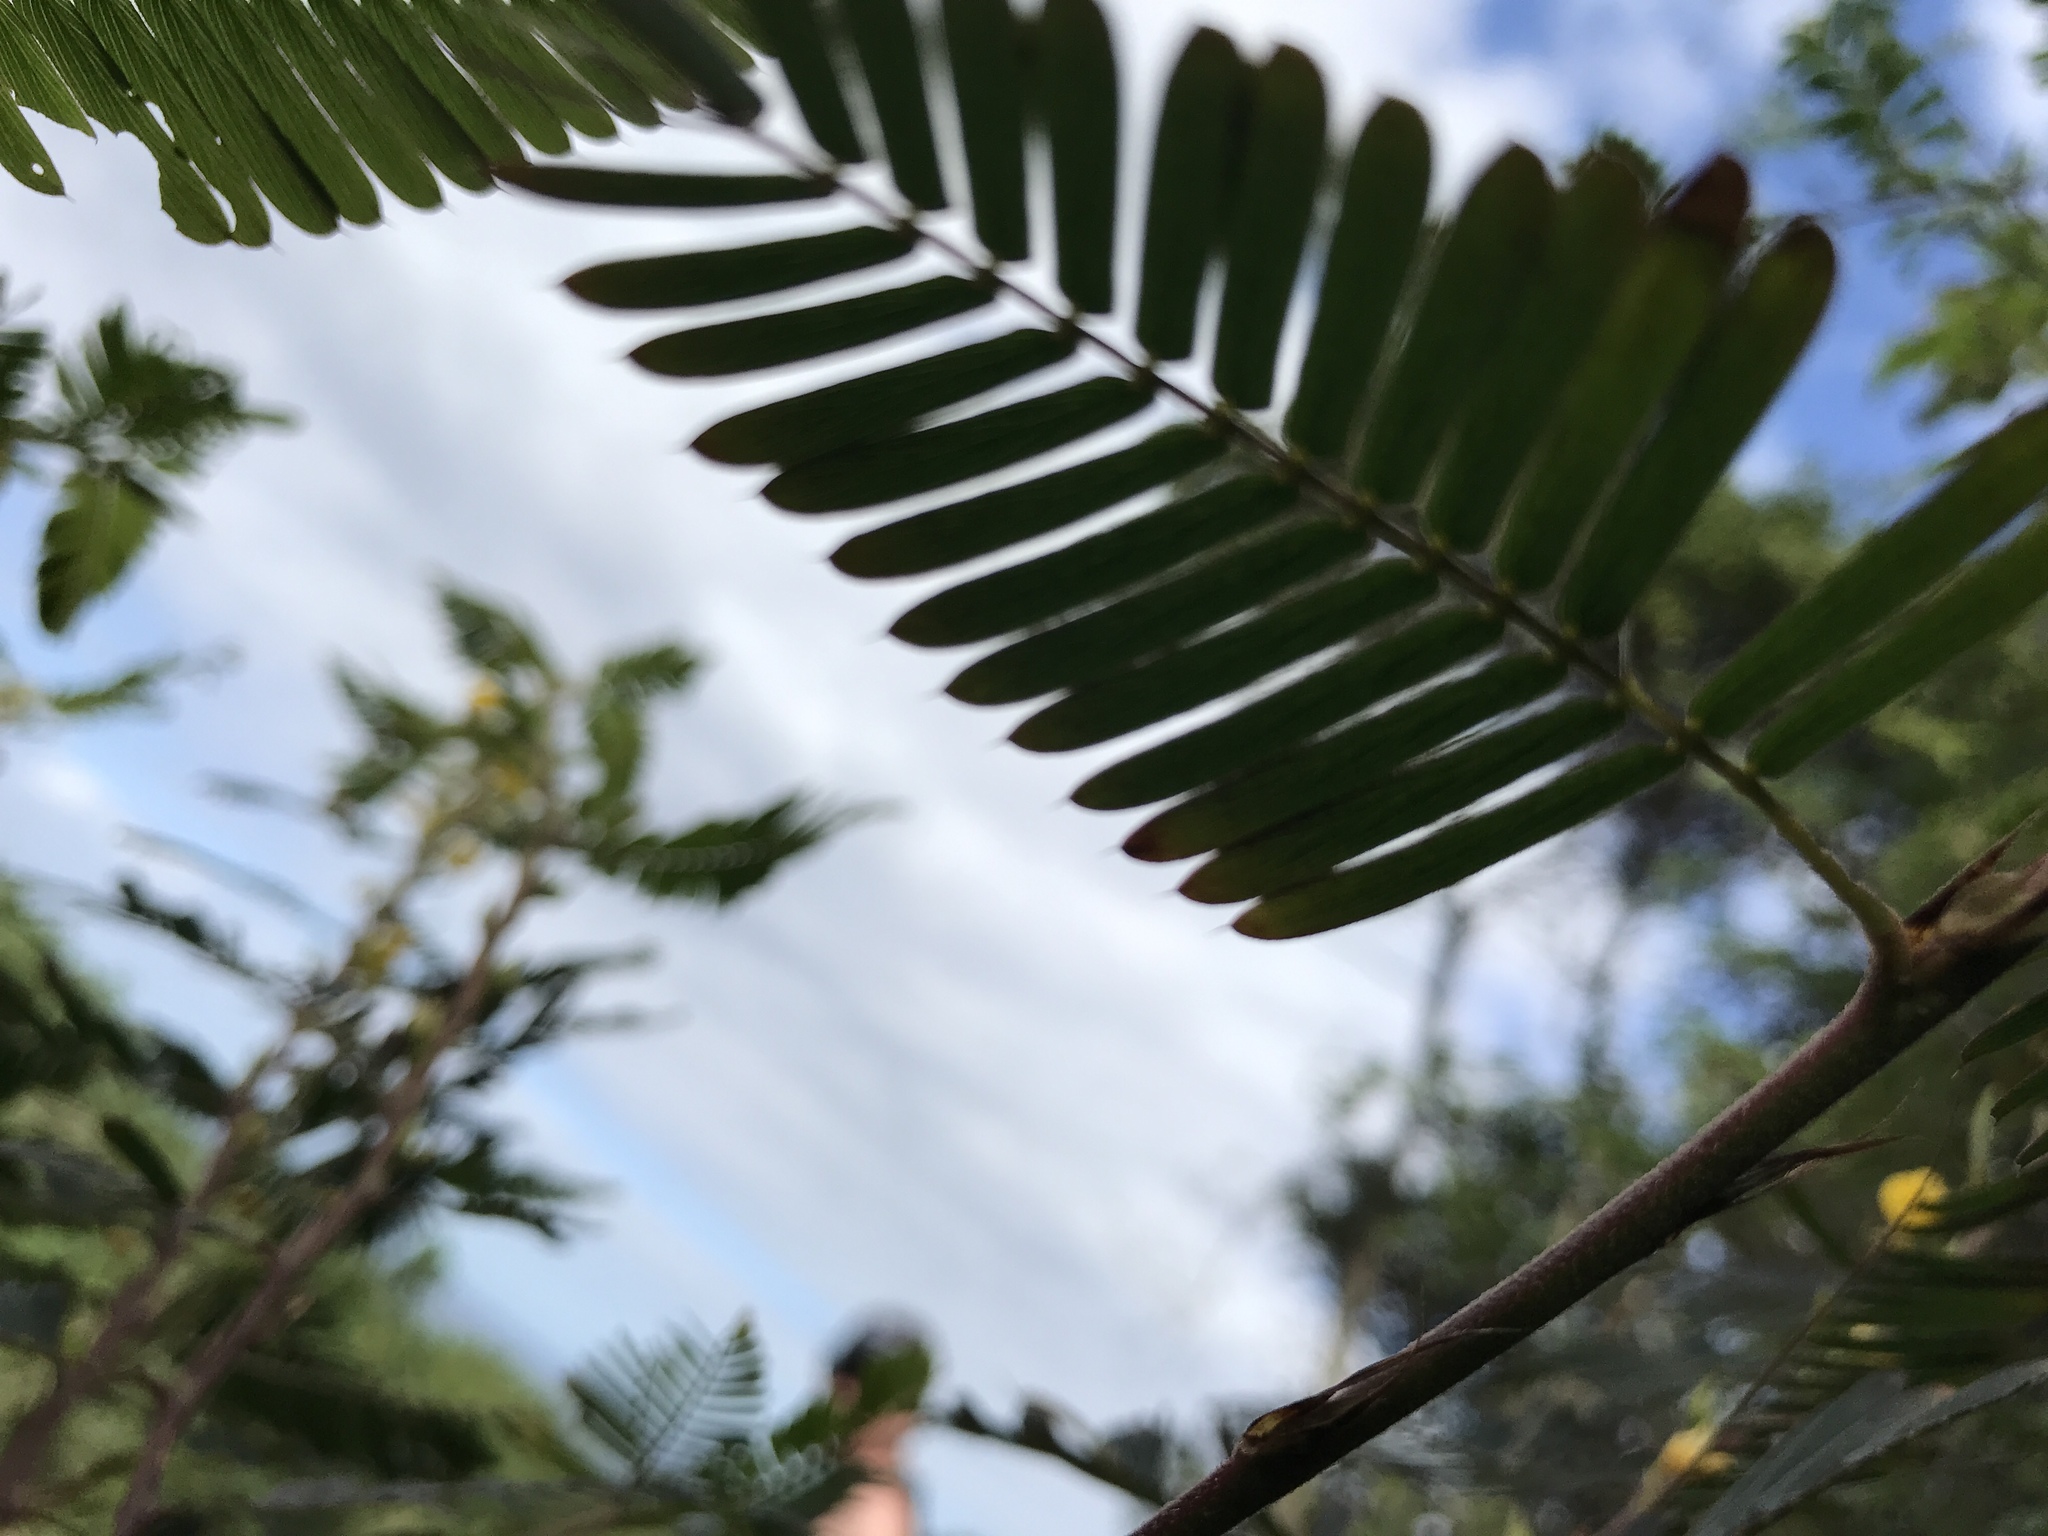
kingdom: Plantae
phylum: Tracheophyta
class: Magnoliopsida
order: Fabales
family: Fabaceae
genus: Chamaecrista
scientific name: Chamaecrista nictitans
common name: Sensitive cassia
